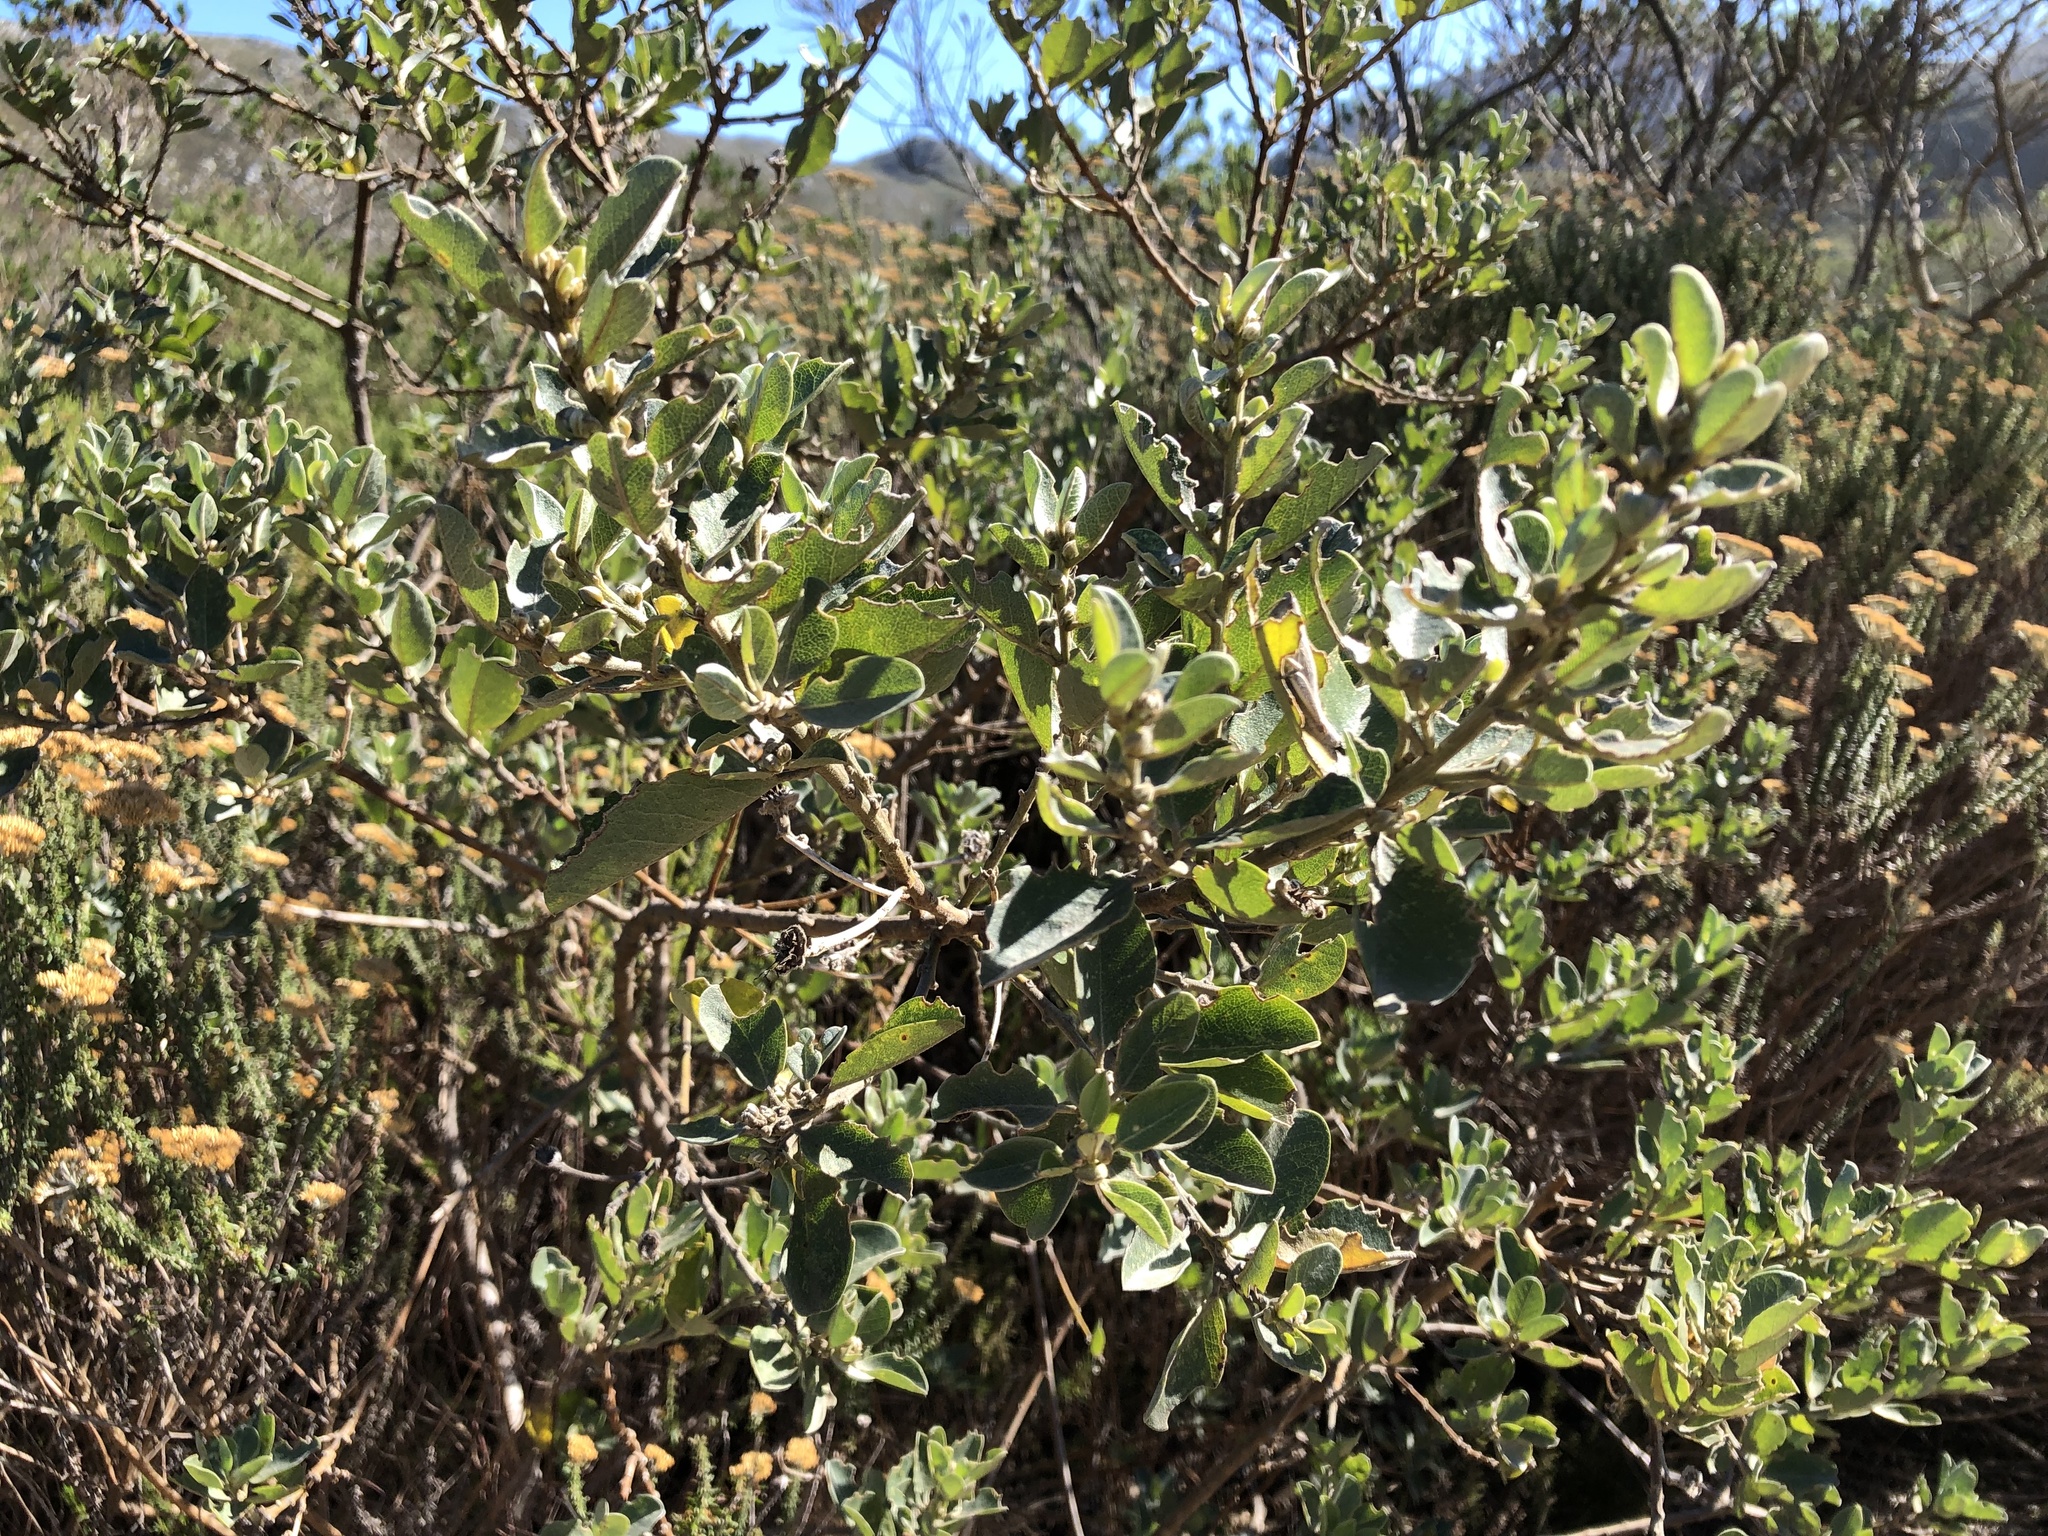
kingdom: Plantae
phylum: Tracheophyta
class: Magnoliopsida
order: Fabales
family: Fabaceae
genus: Podalyria
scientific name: Podalyria calyptrata
